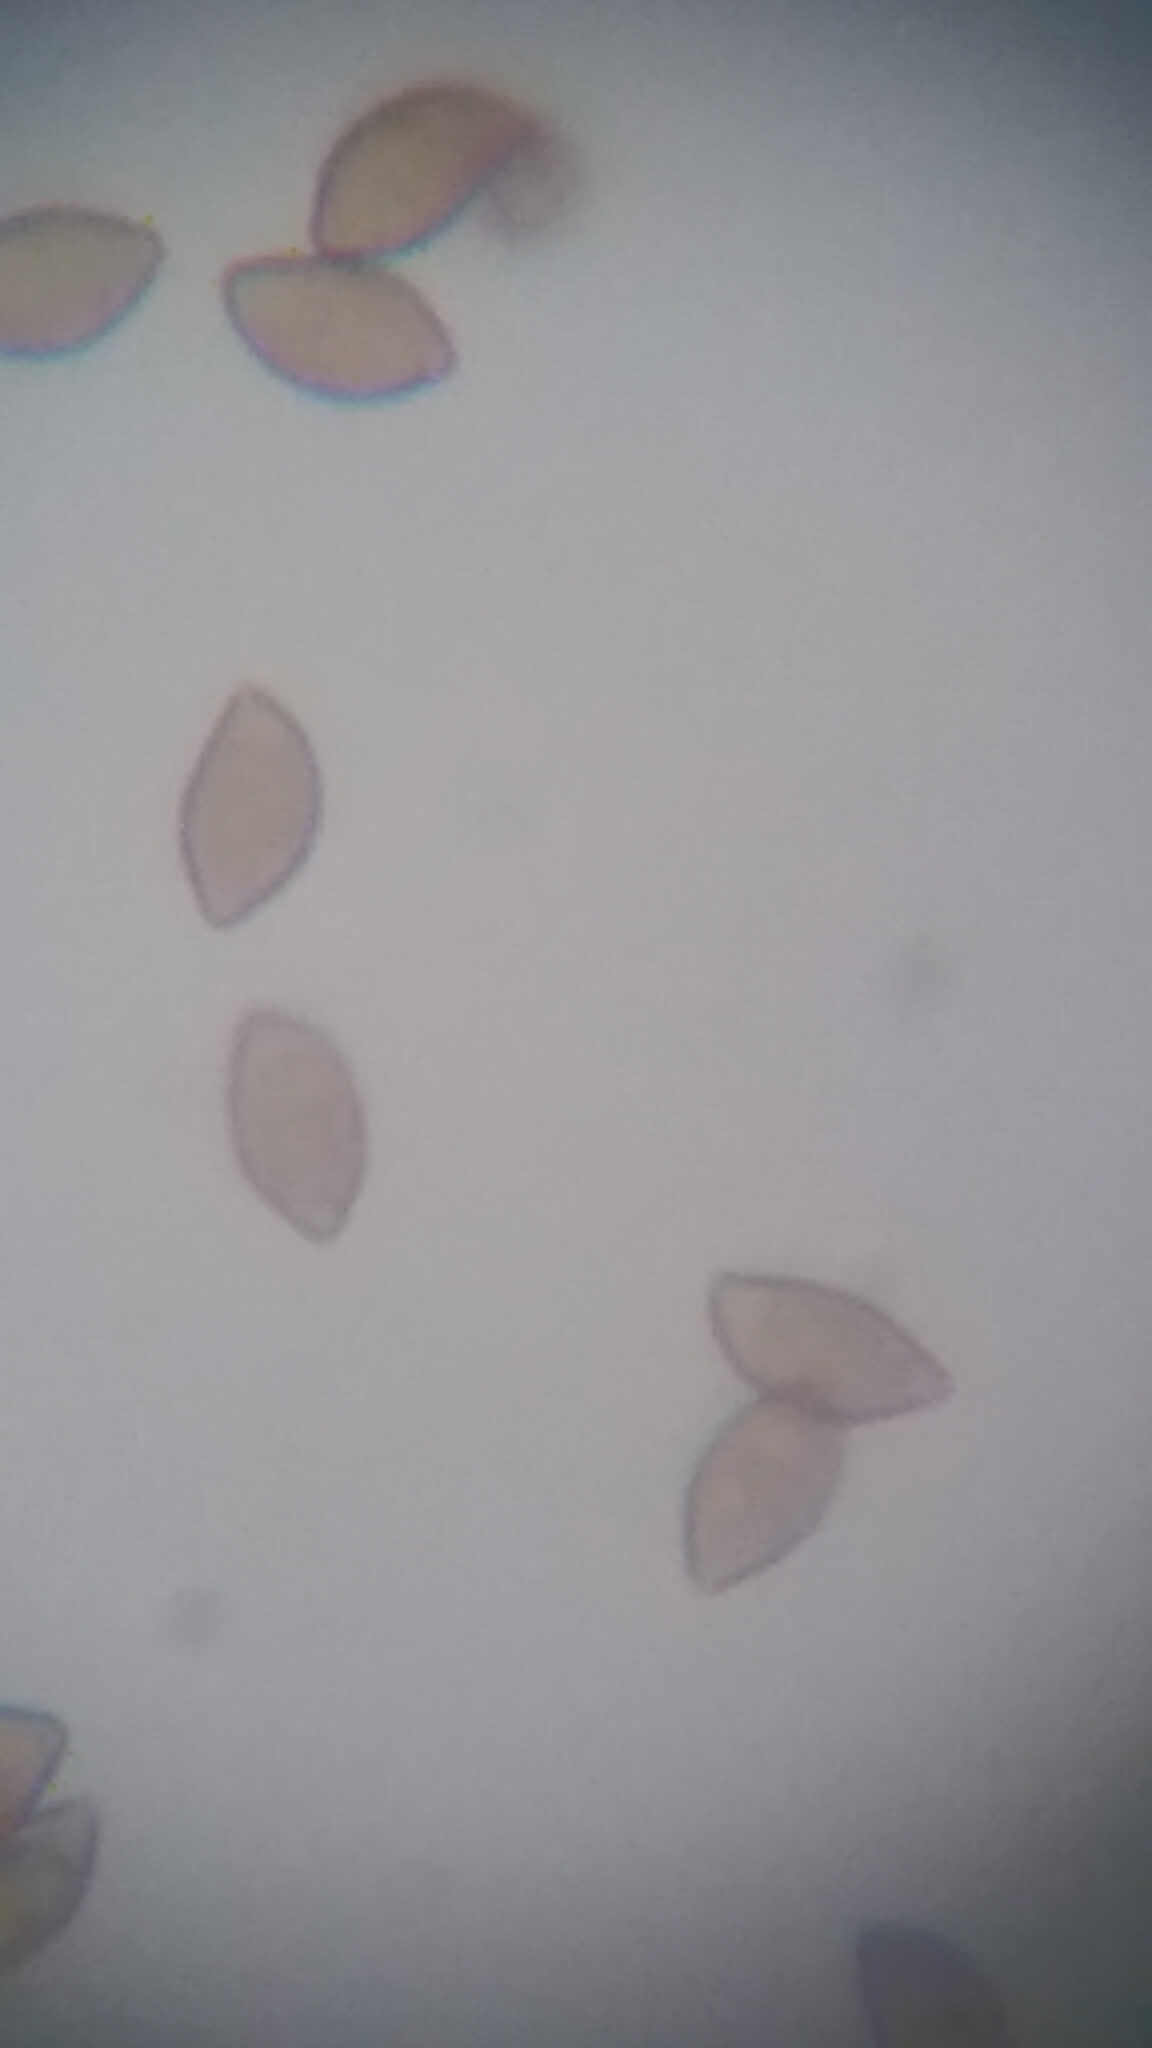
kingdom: Fungi
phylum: Basidiomycota
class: Agaricomycetes
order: Agaricales
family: Cortinariaceae
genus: Phlegmacium
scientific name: Phlegmacium argutum
